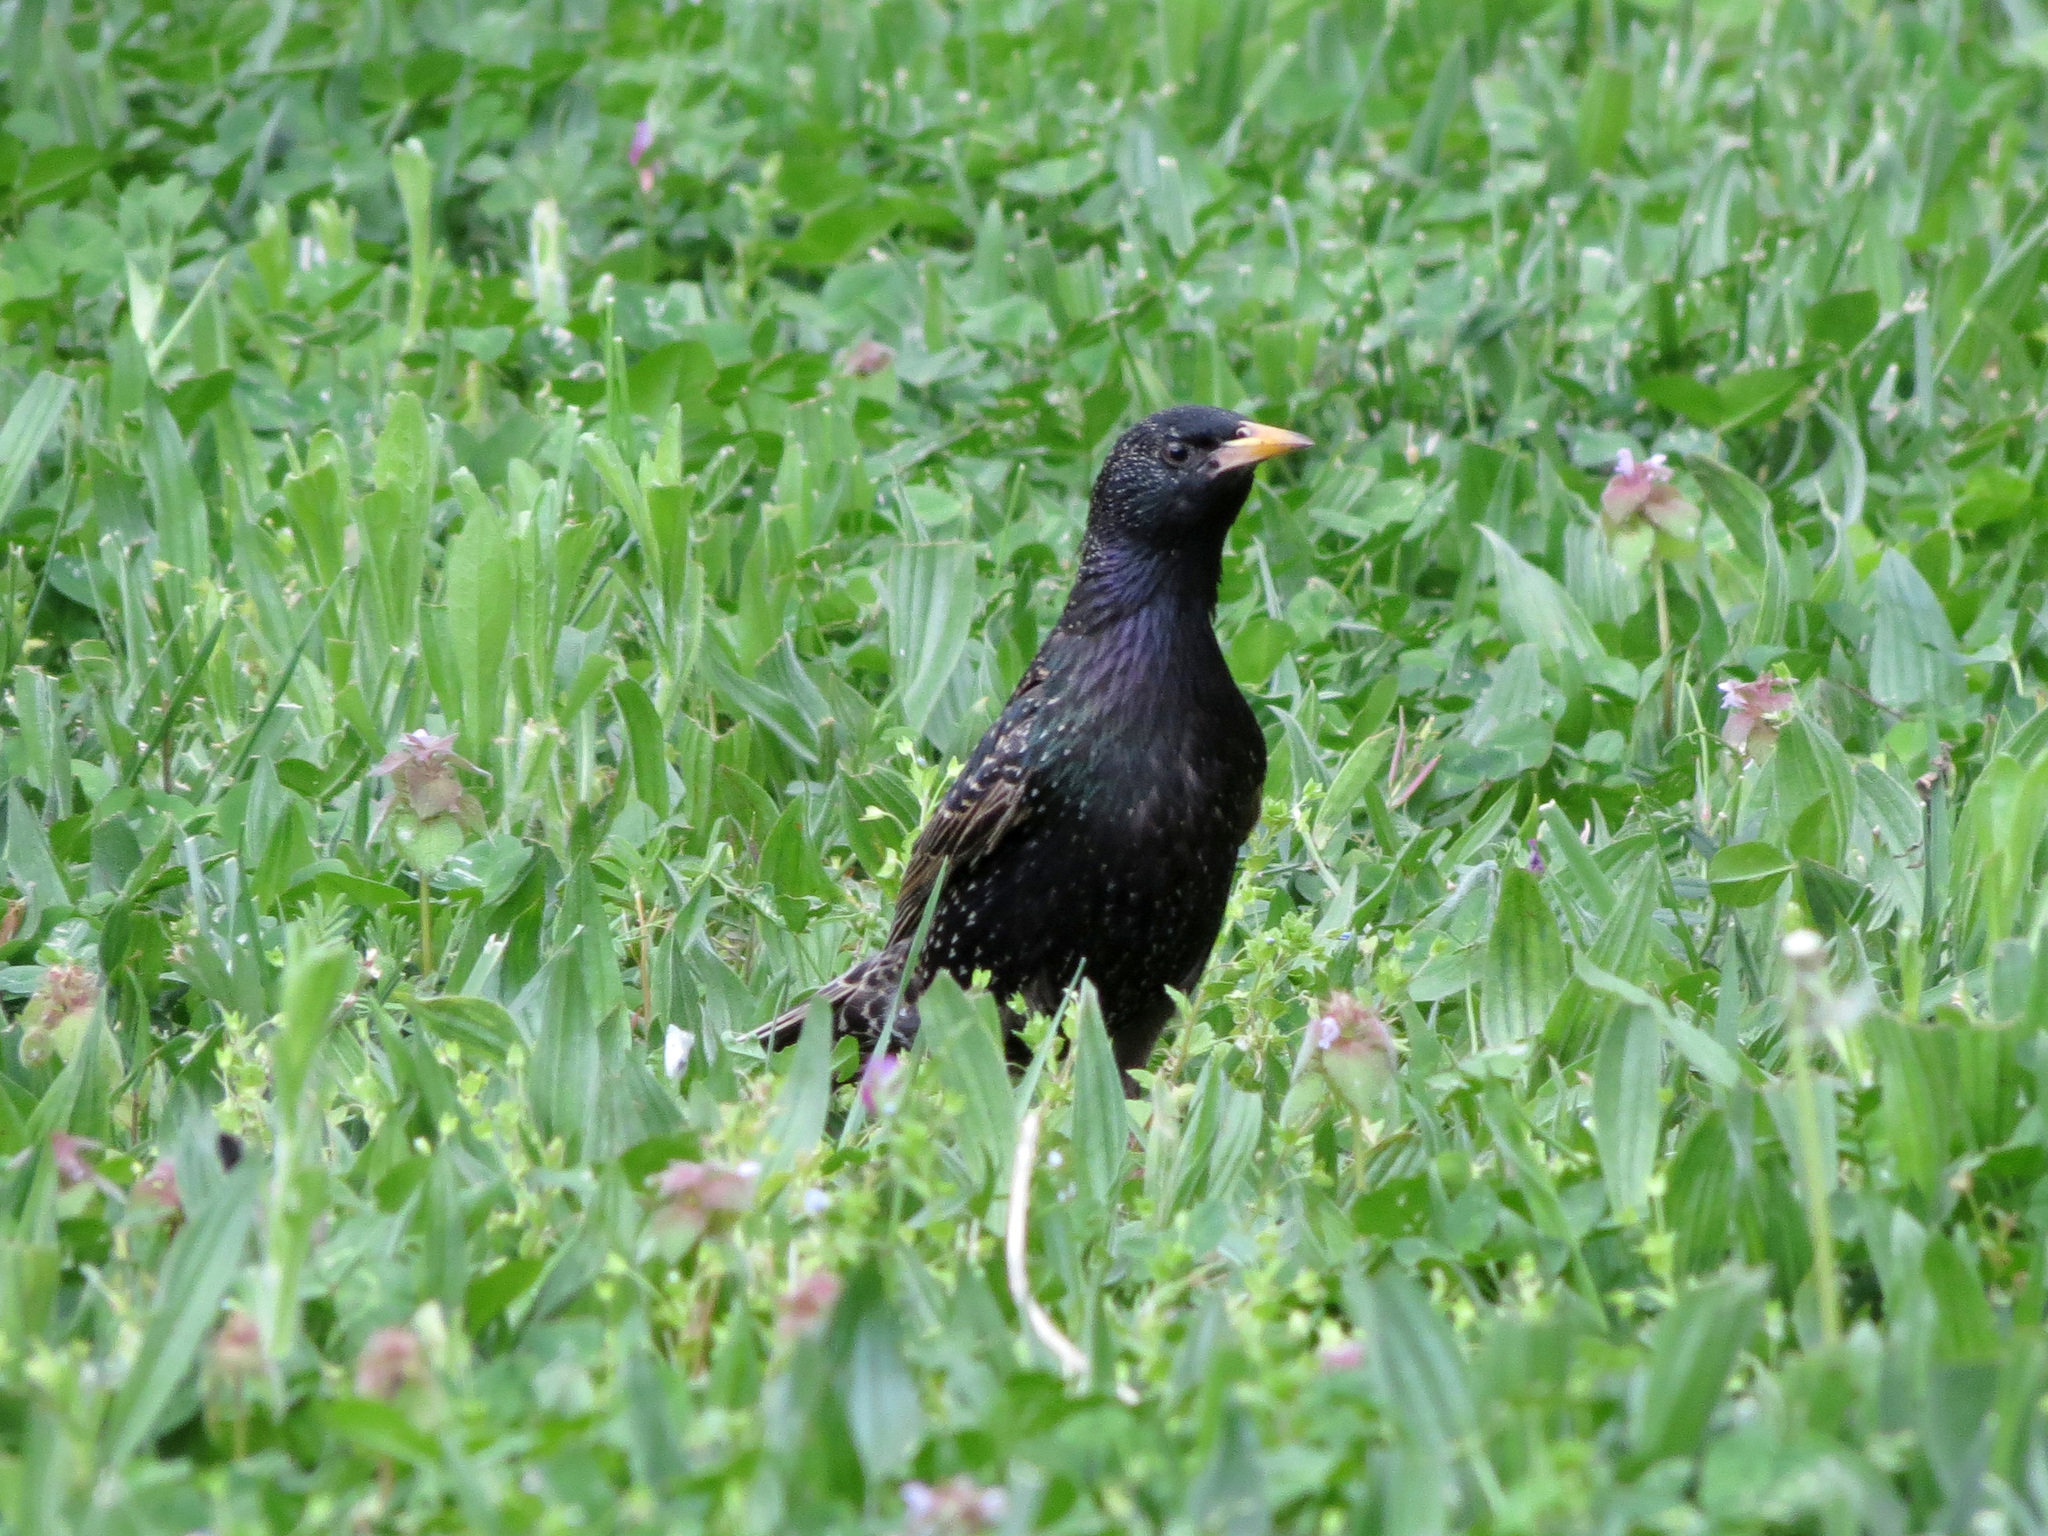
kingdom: Animalia
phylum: Chordata
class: Aves
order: Passeriformes
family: Sturnidae
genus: Sturnus
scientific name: Sturnus vulgaris
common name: Common starling
